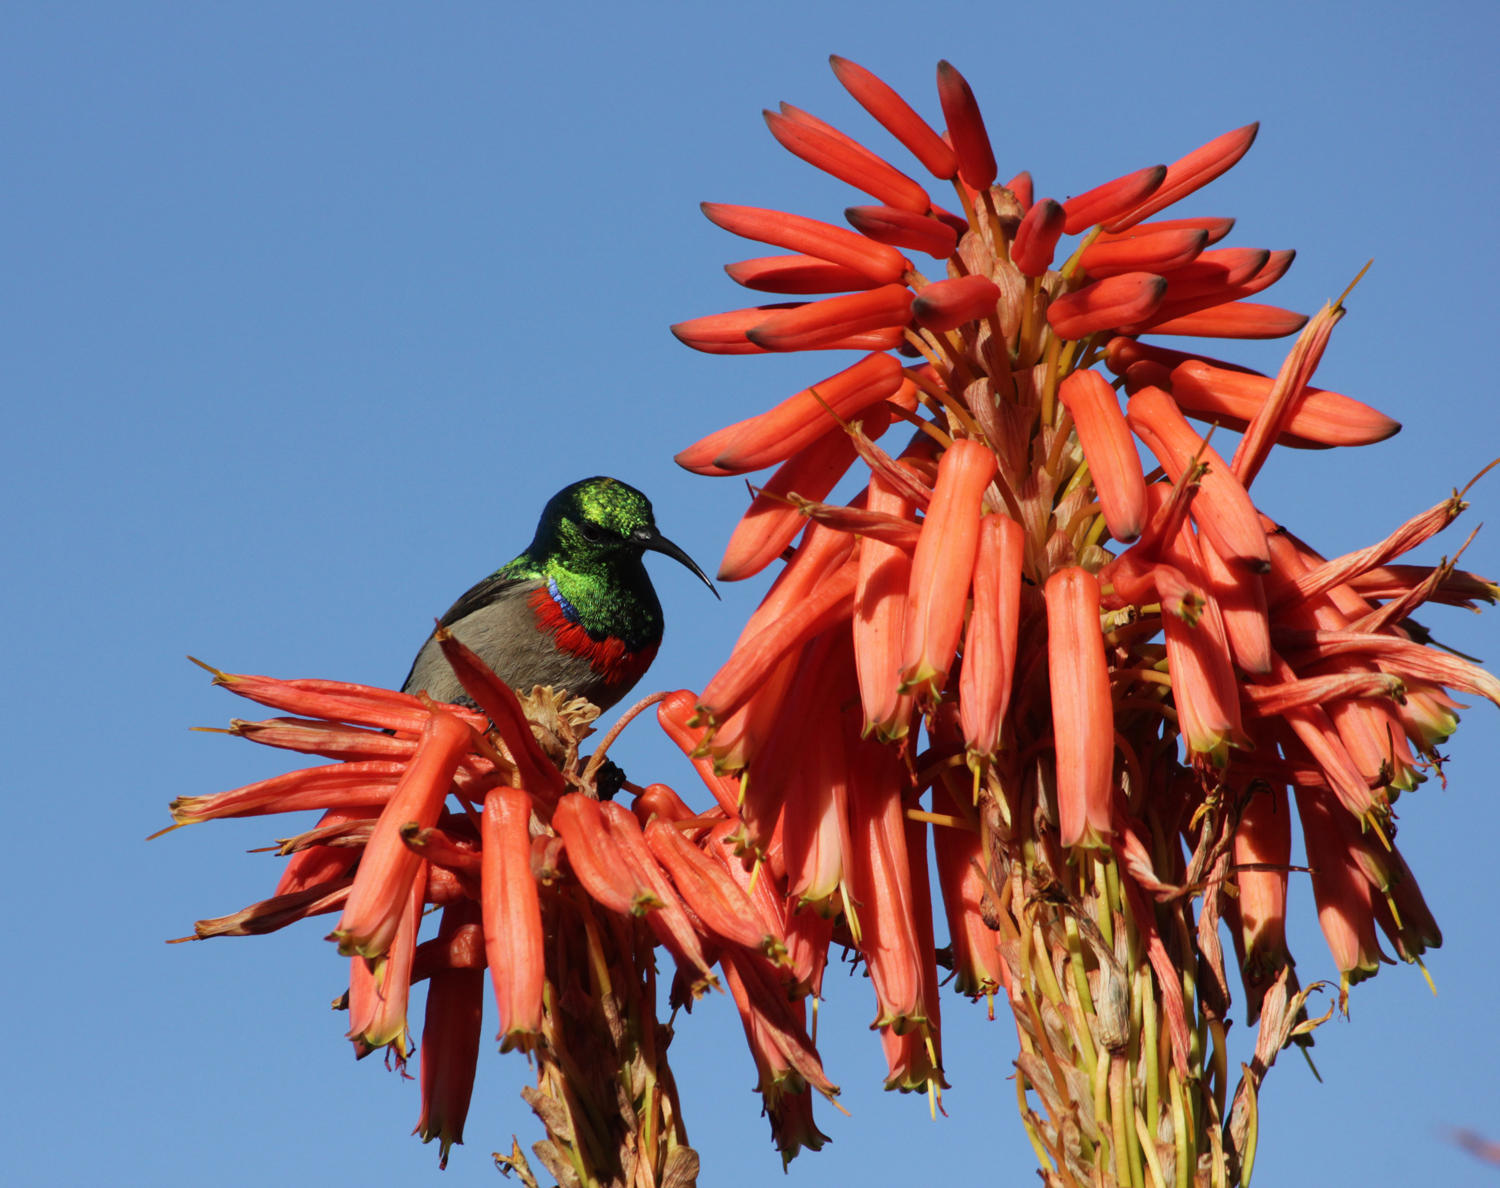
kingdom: Animalia
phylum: Chordata
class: Aves
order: Passeriformes
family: Nectariniidae
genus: Cinnyris
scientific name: Cinnyris chalybeus
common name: Southern double-collared sunbird
